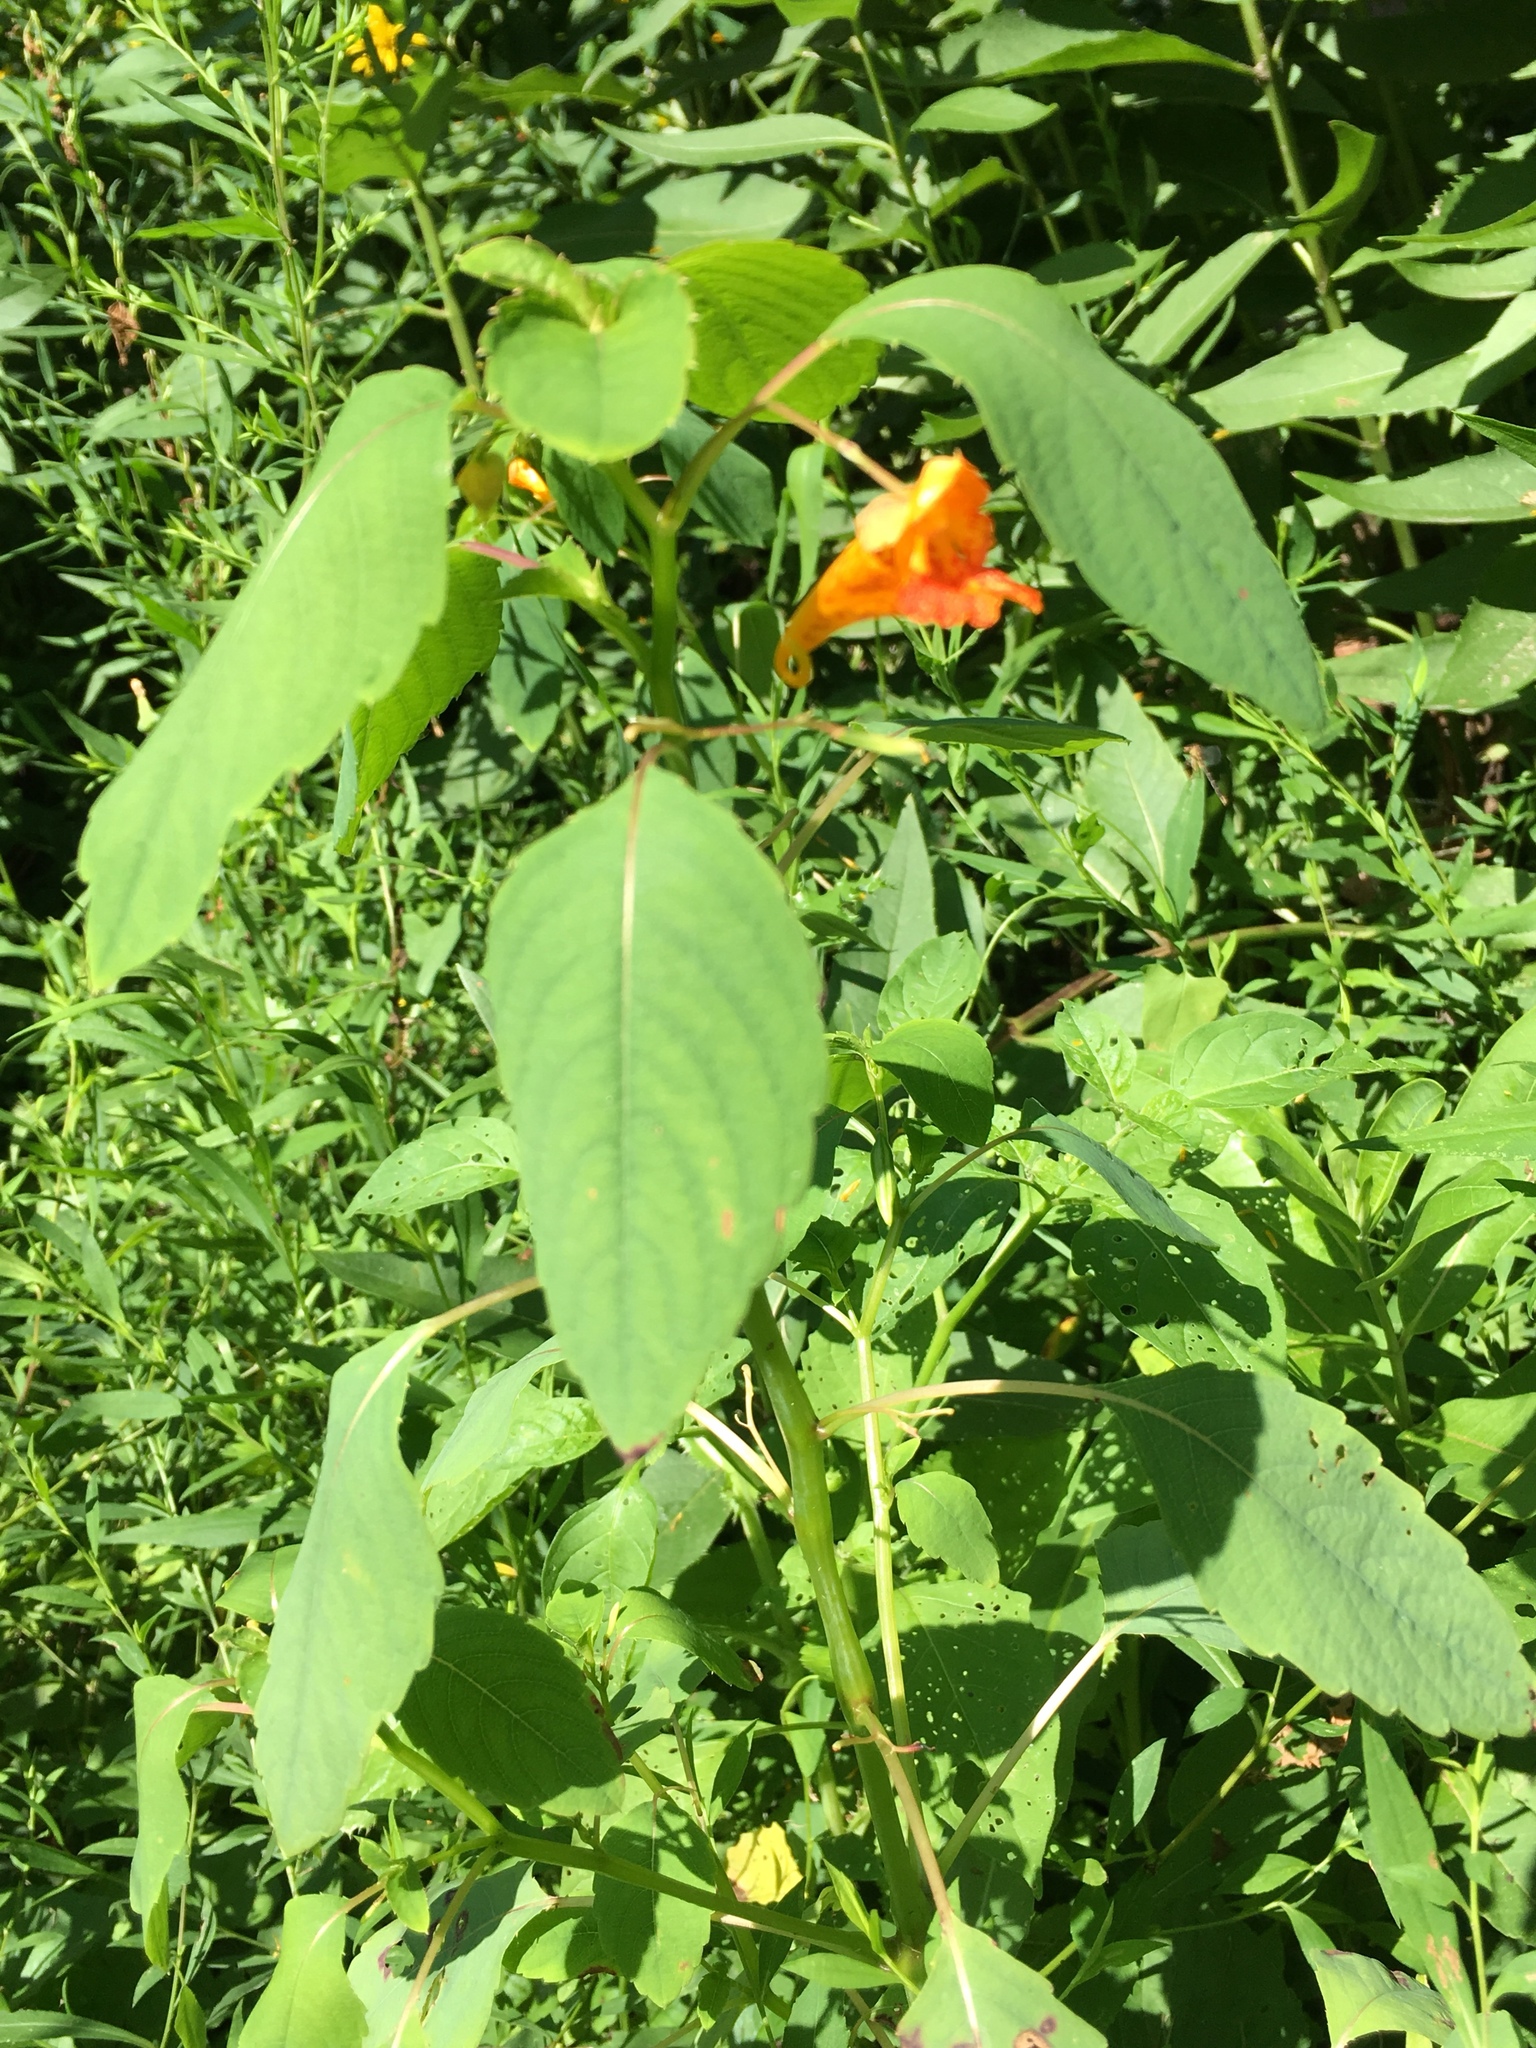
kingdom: Plantae
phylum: Tracheophyta
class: Magnoliopsida
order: Ericales
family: Balsaminaceae
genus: Impatiens
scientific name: Impatiens capensis
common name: Orange balsam
